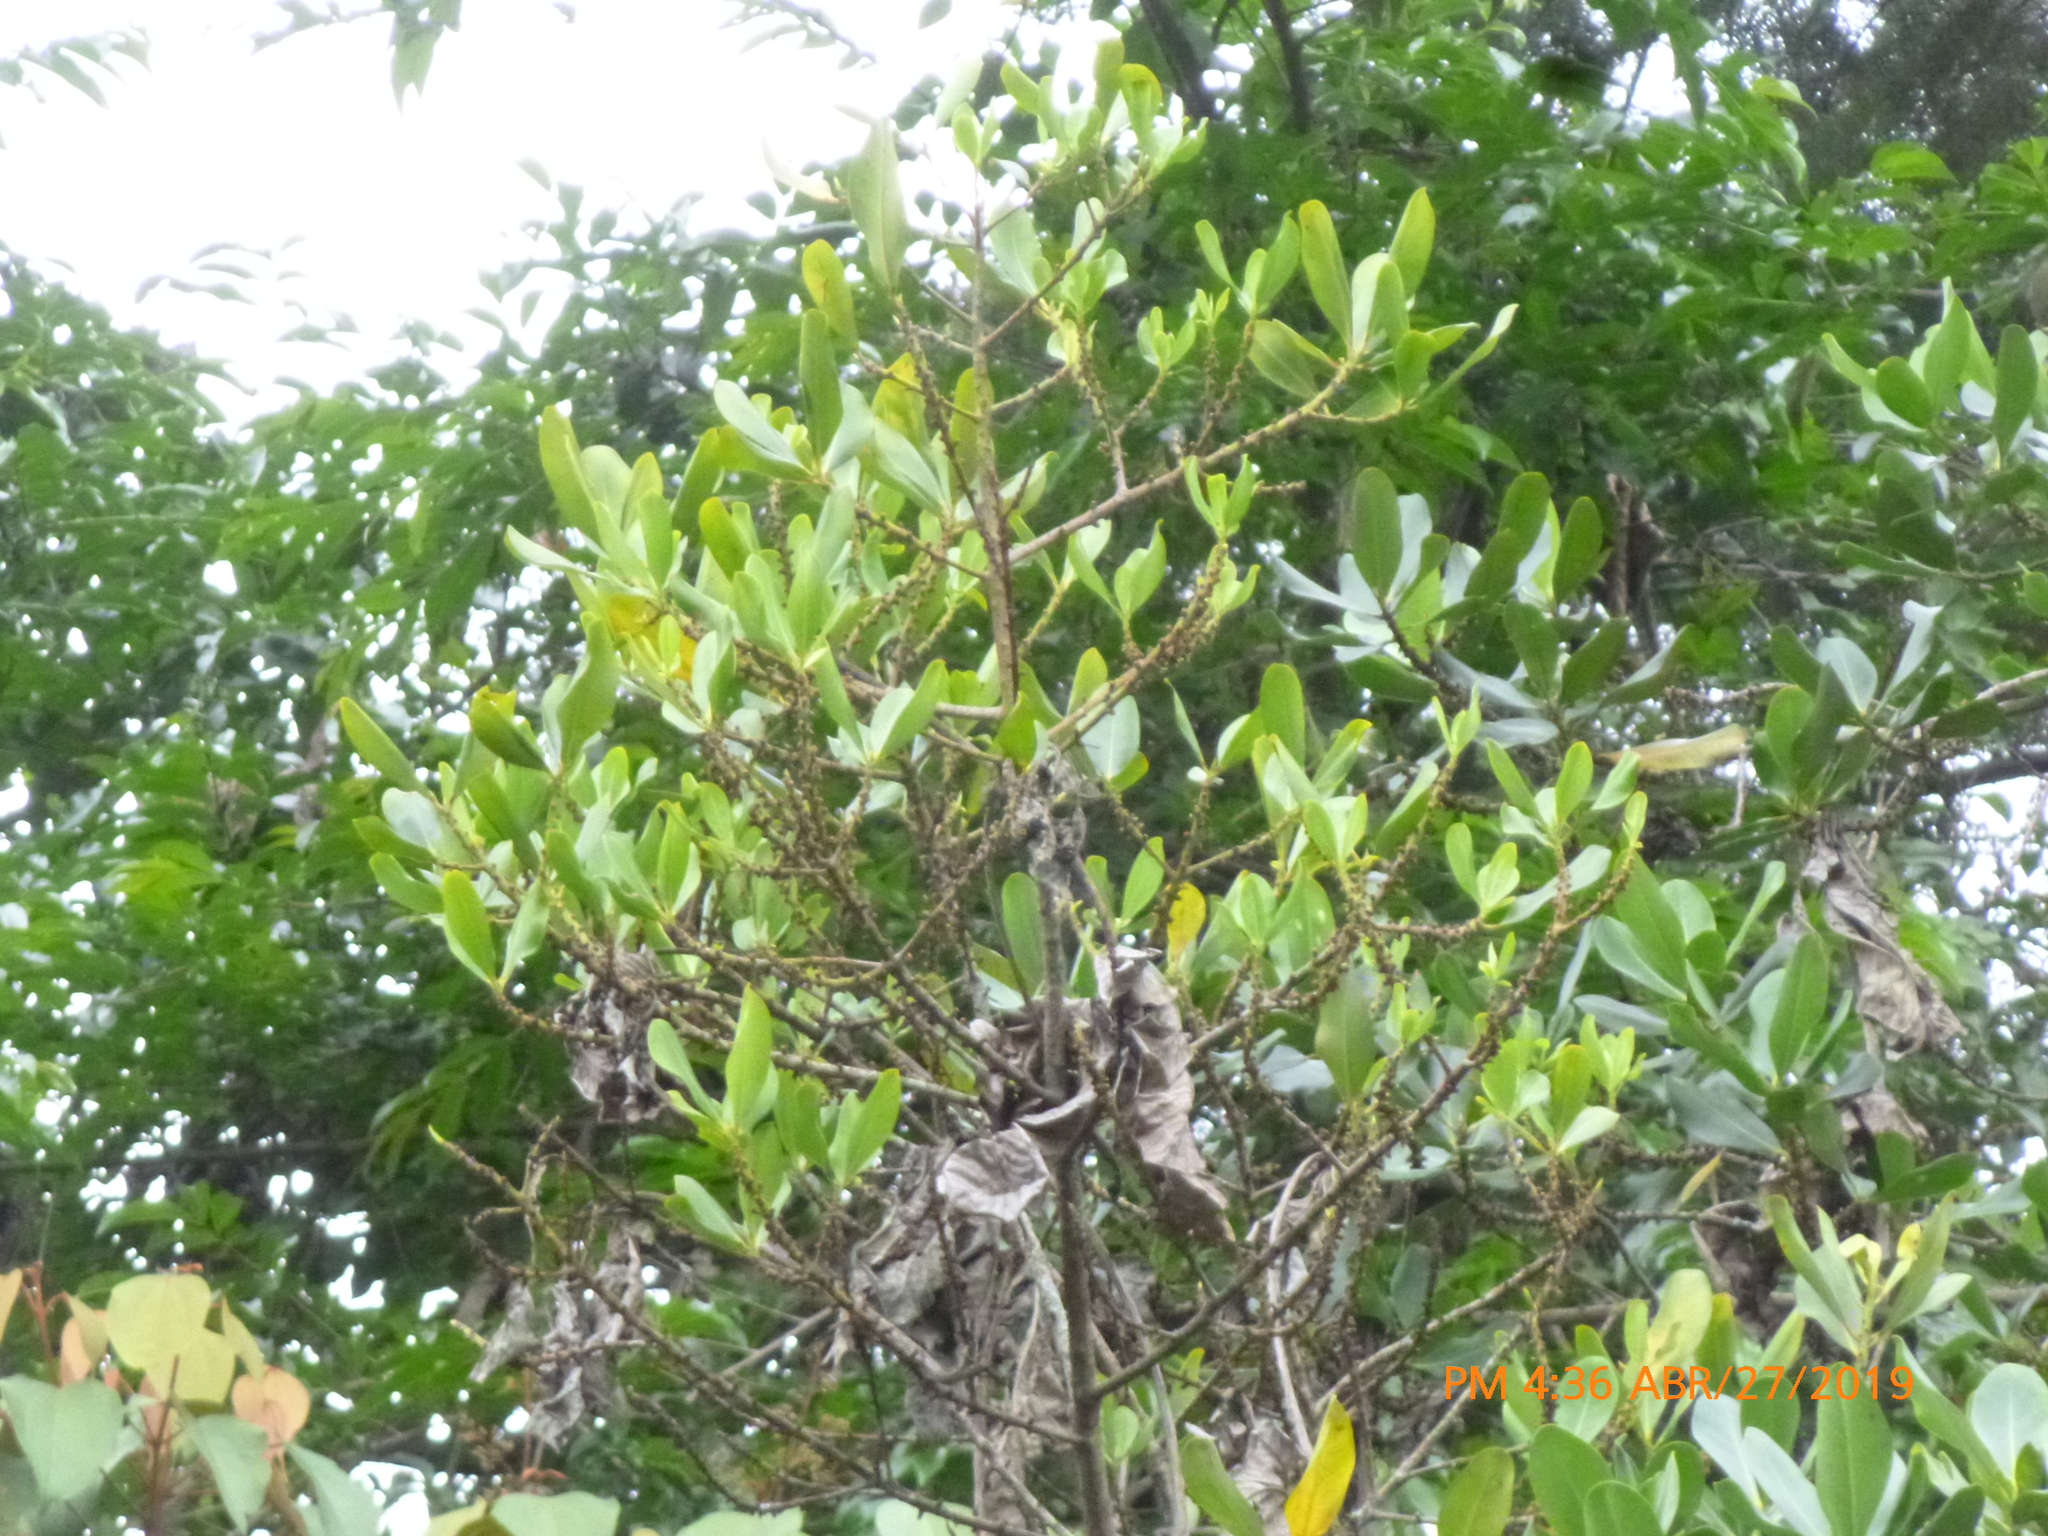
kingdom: Plantae
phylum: Tracheophyta
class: Magnoliopsida
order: Ericales
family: Primulaceae
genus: Myrsine
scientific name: Myrsine coriacea
